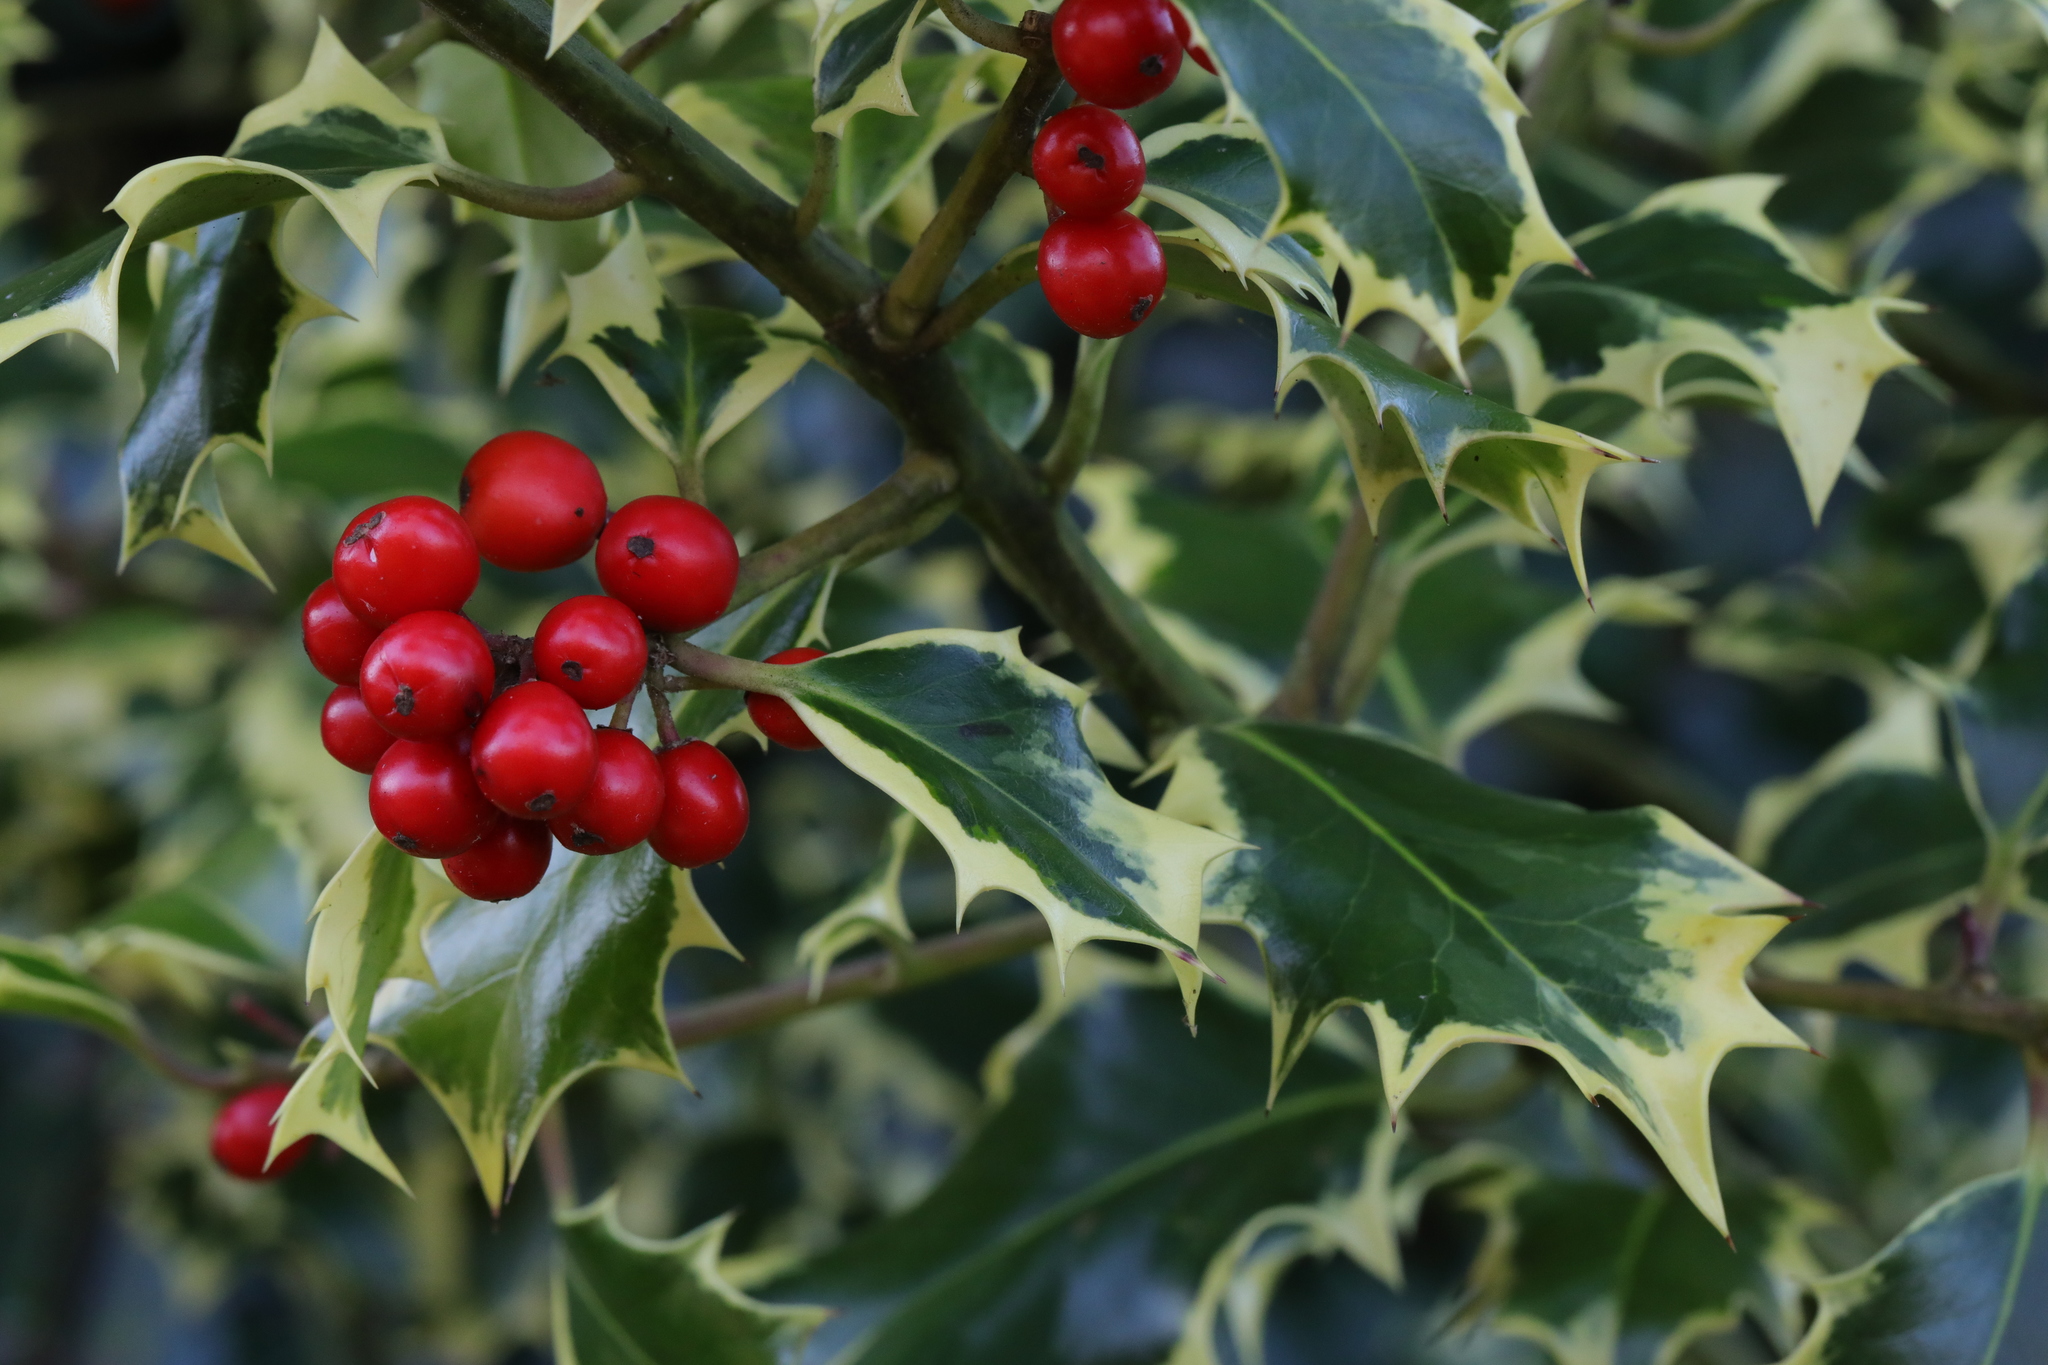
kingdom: Plantae
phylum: Tracheophyta
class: Magnoliopsida
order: Aquifoliales
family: Aquifoliaceae
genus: Ilex
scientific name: Ilex aquifolium
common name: English holly
